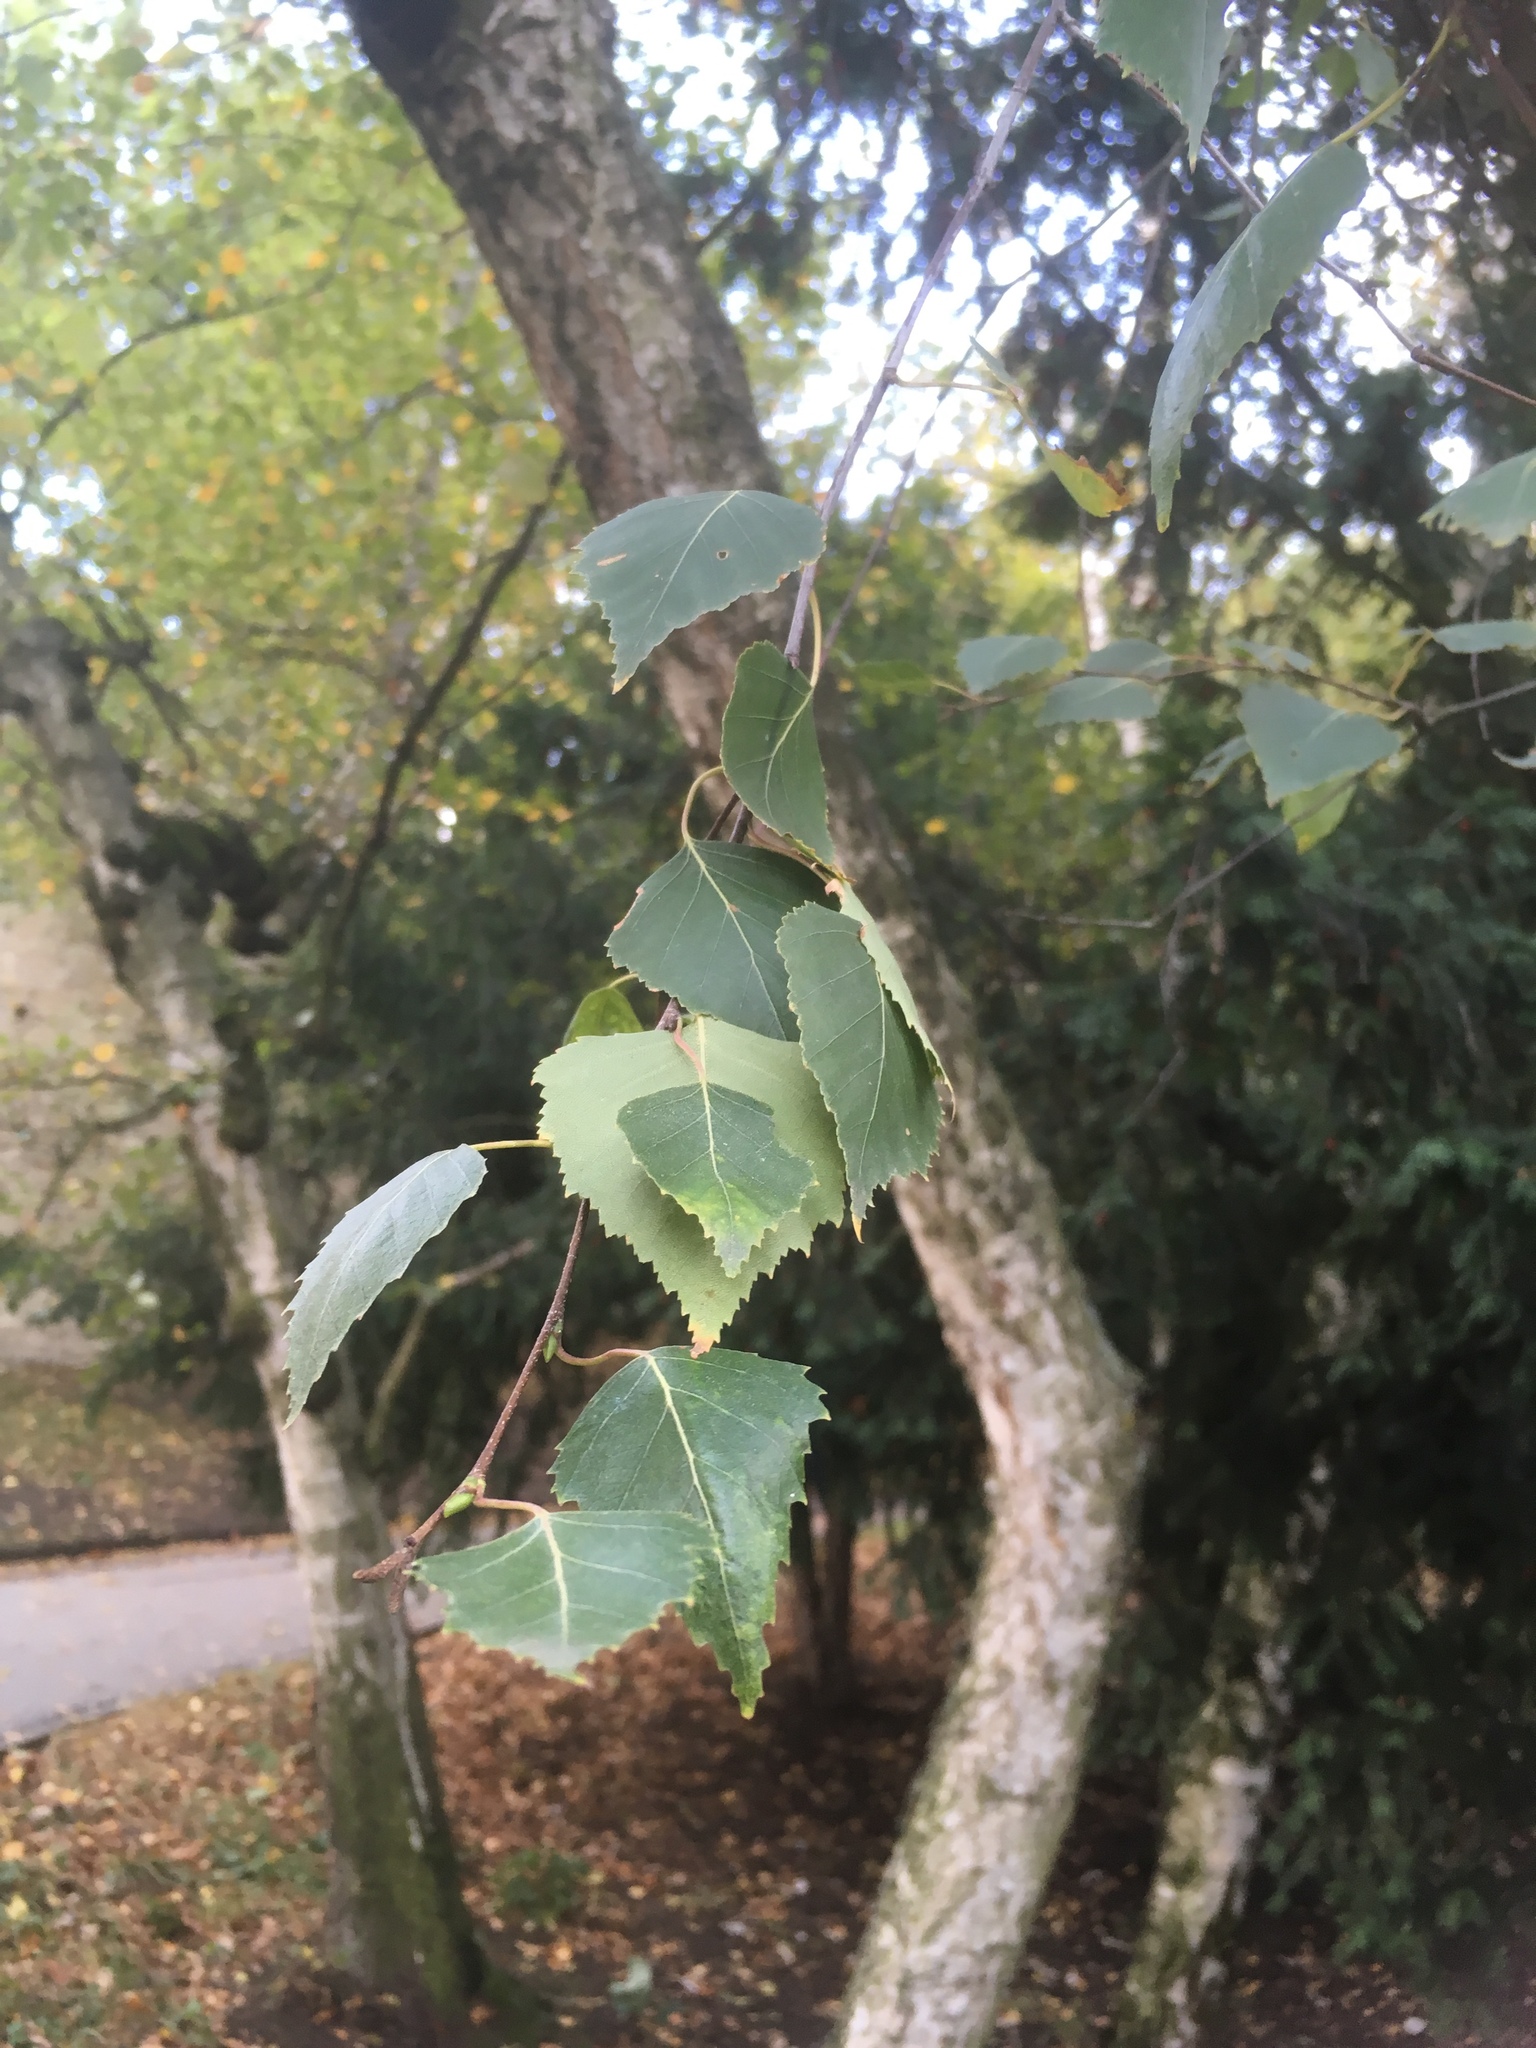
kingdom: Plantae
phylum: Tracheophyta
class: Magnoliopsida
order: Fagales
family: Betulaceae
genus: Betula
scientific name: Betula pendula
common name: Silver birch
